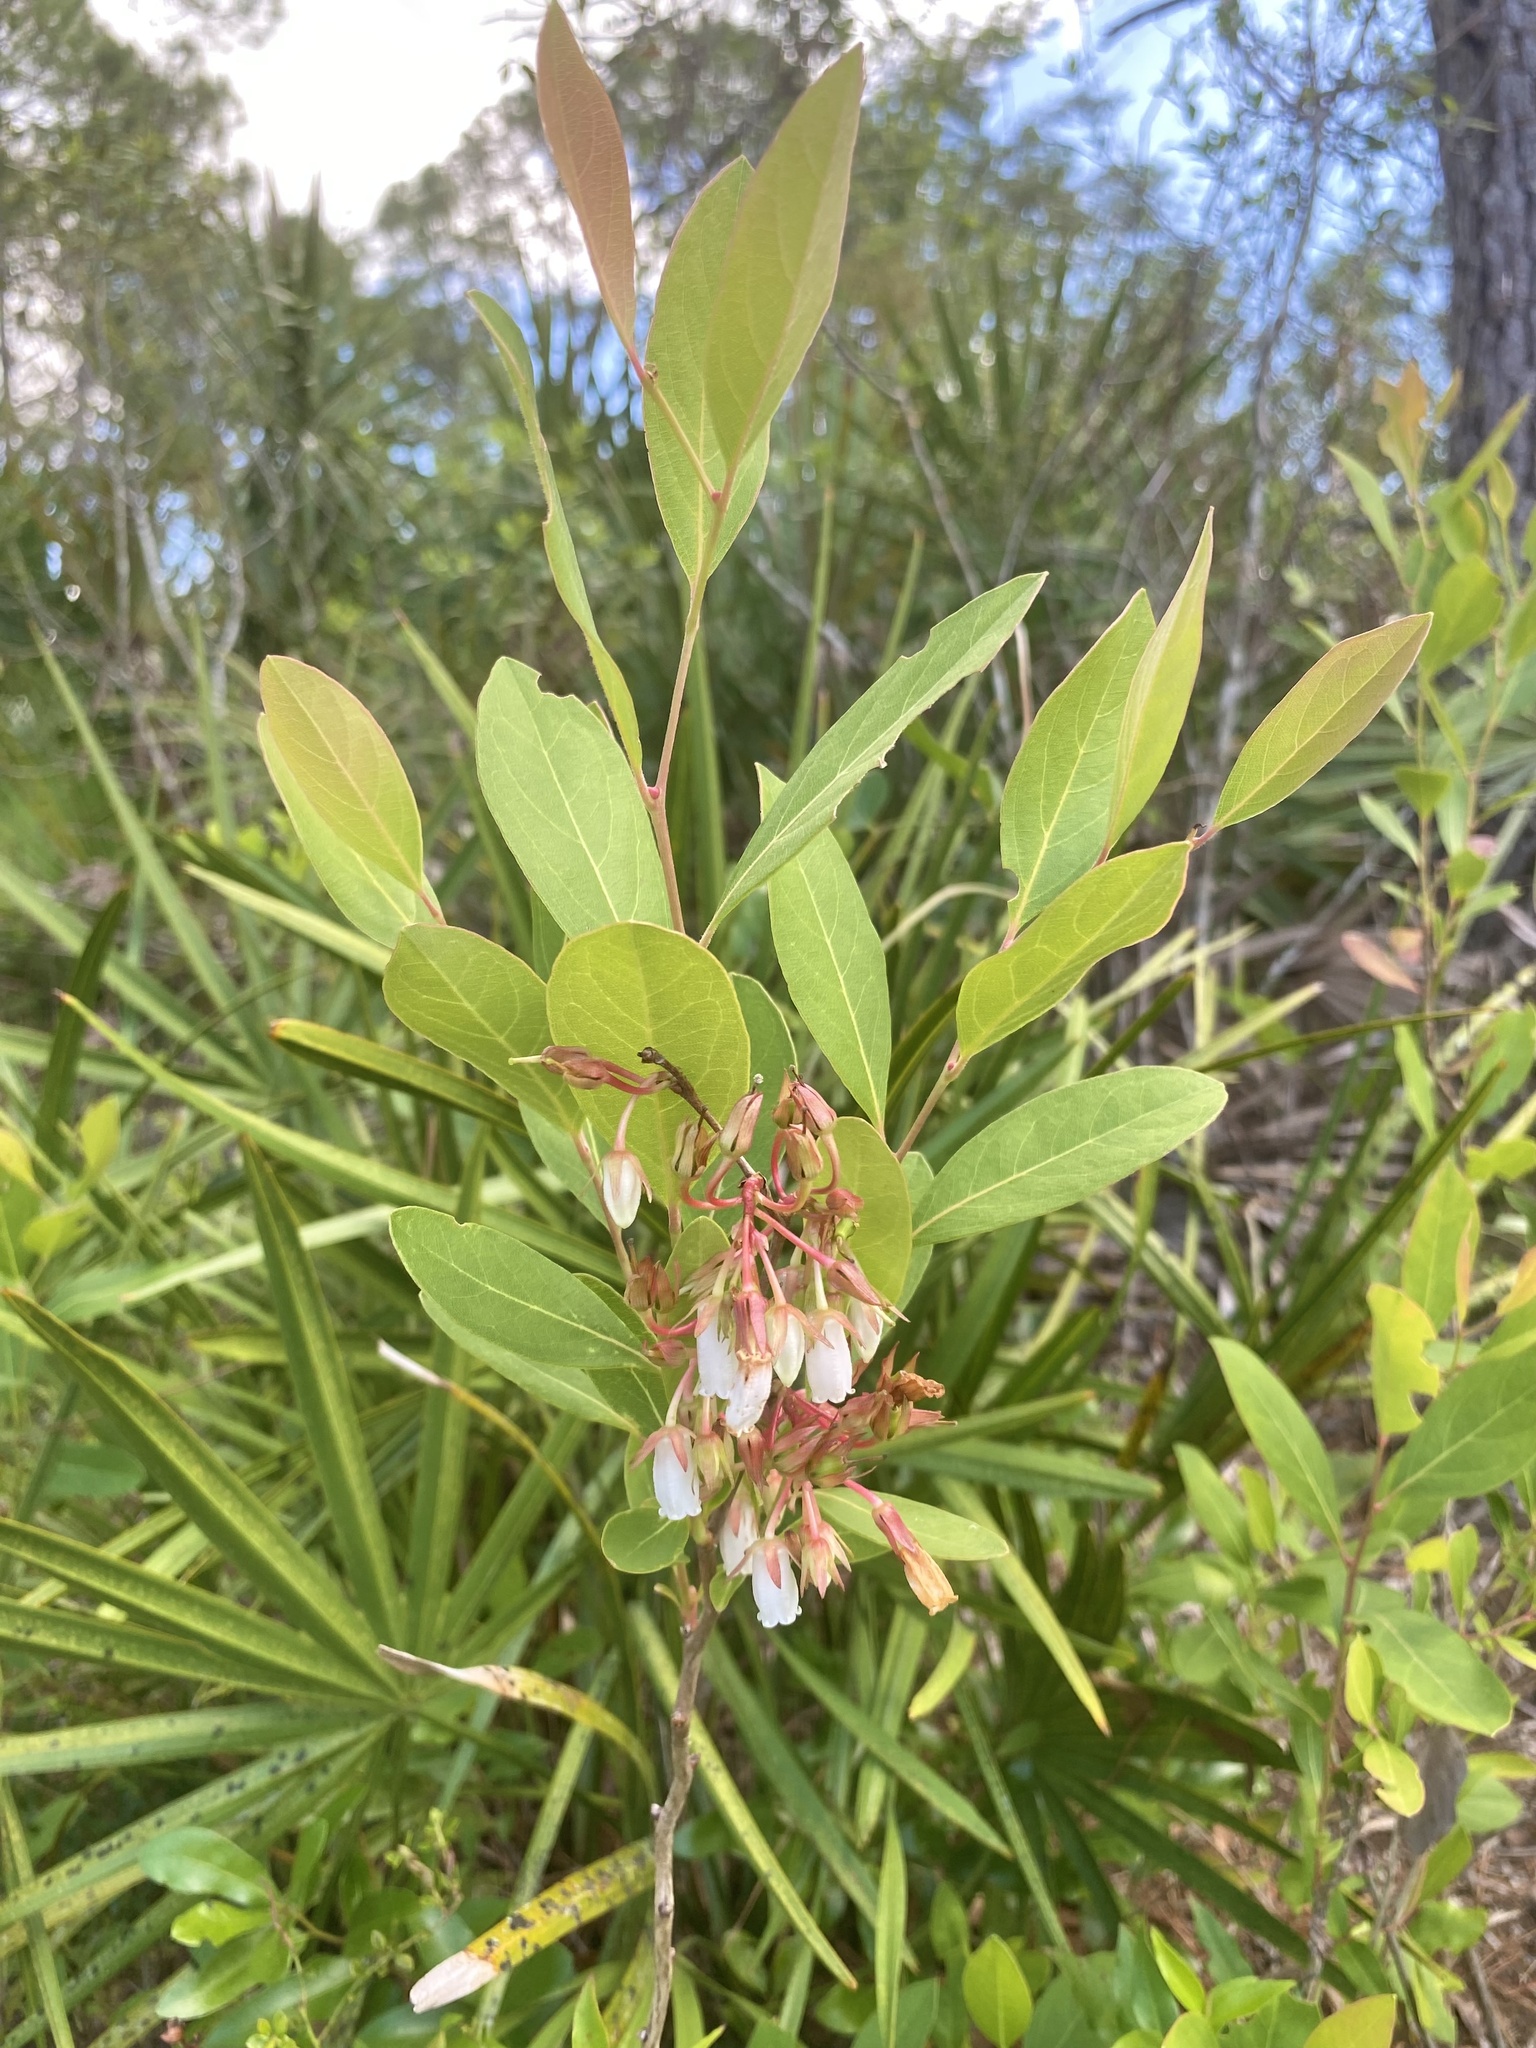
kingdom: Plantae
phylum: Tracheophyta
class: Magnoliopsida
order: Ericales
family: Ericaceae
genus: Lyonia
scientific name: Lyonia mariana
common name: Staggerbush
